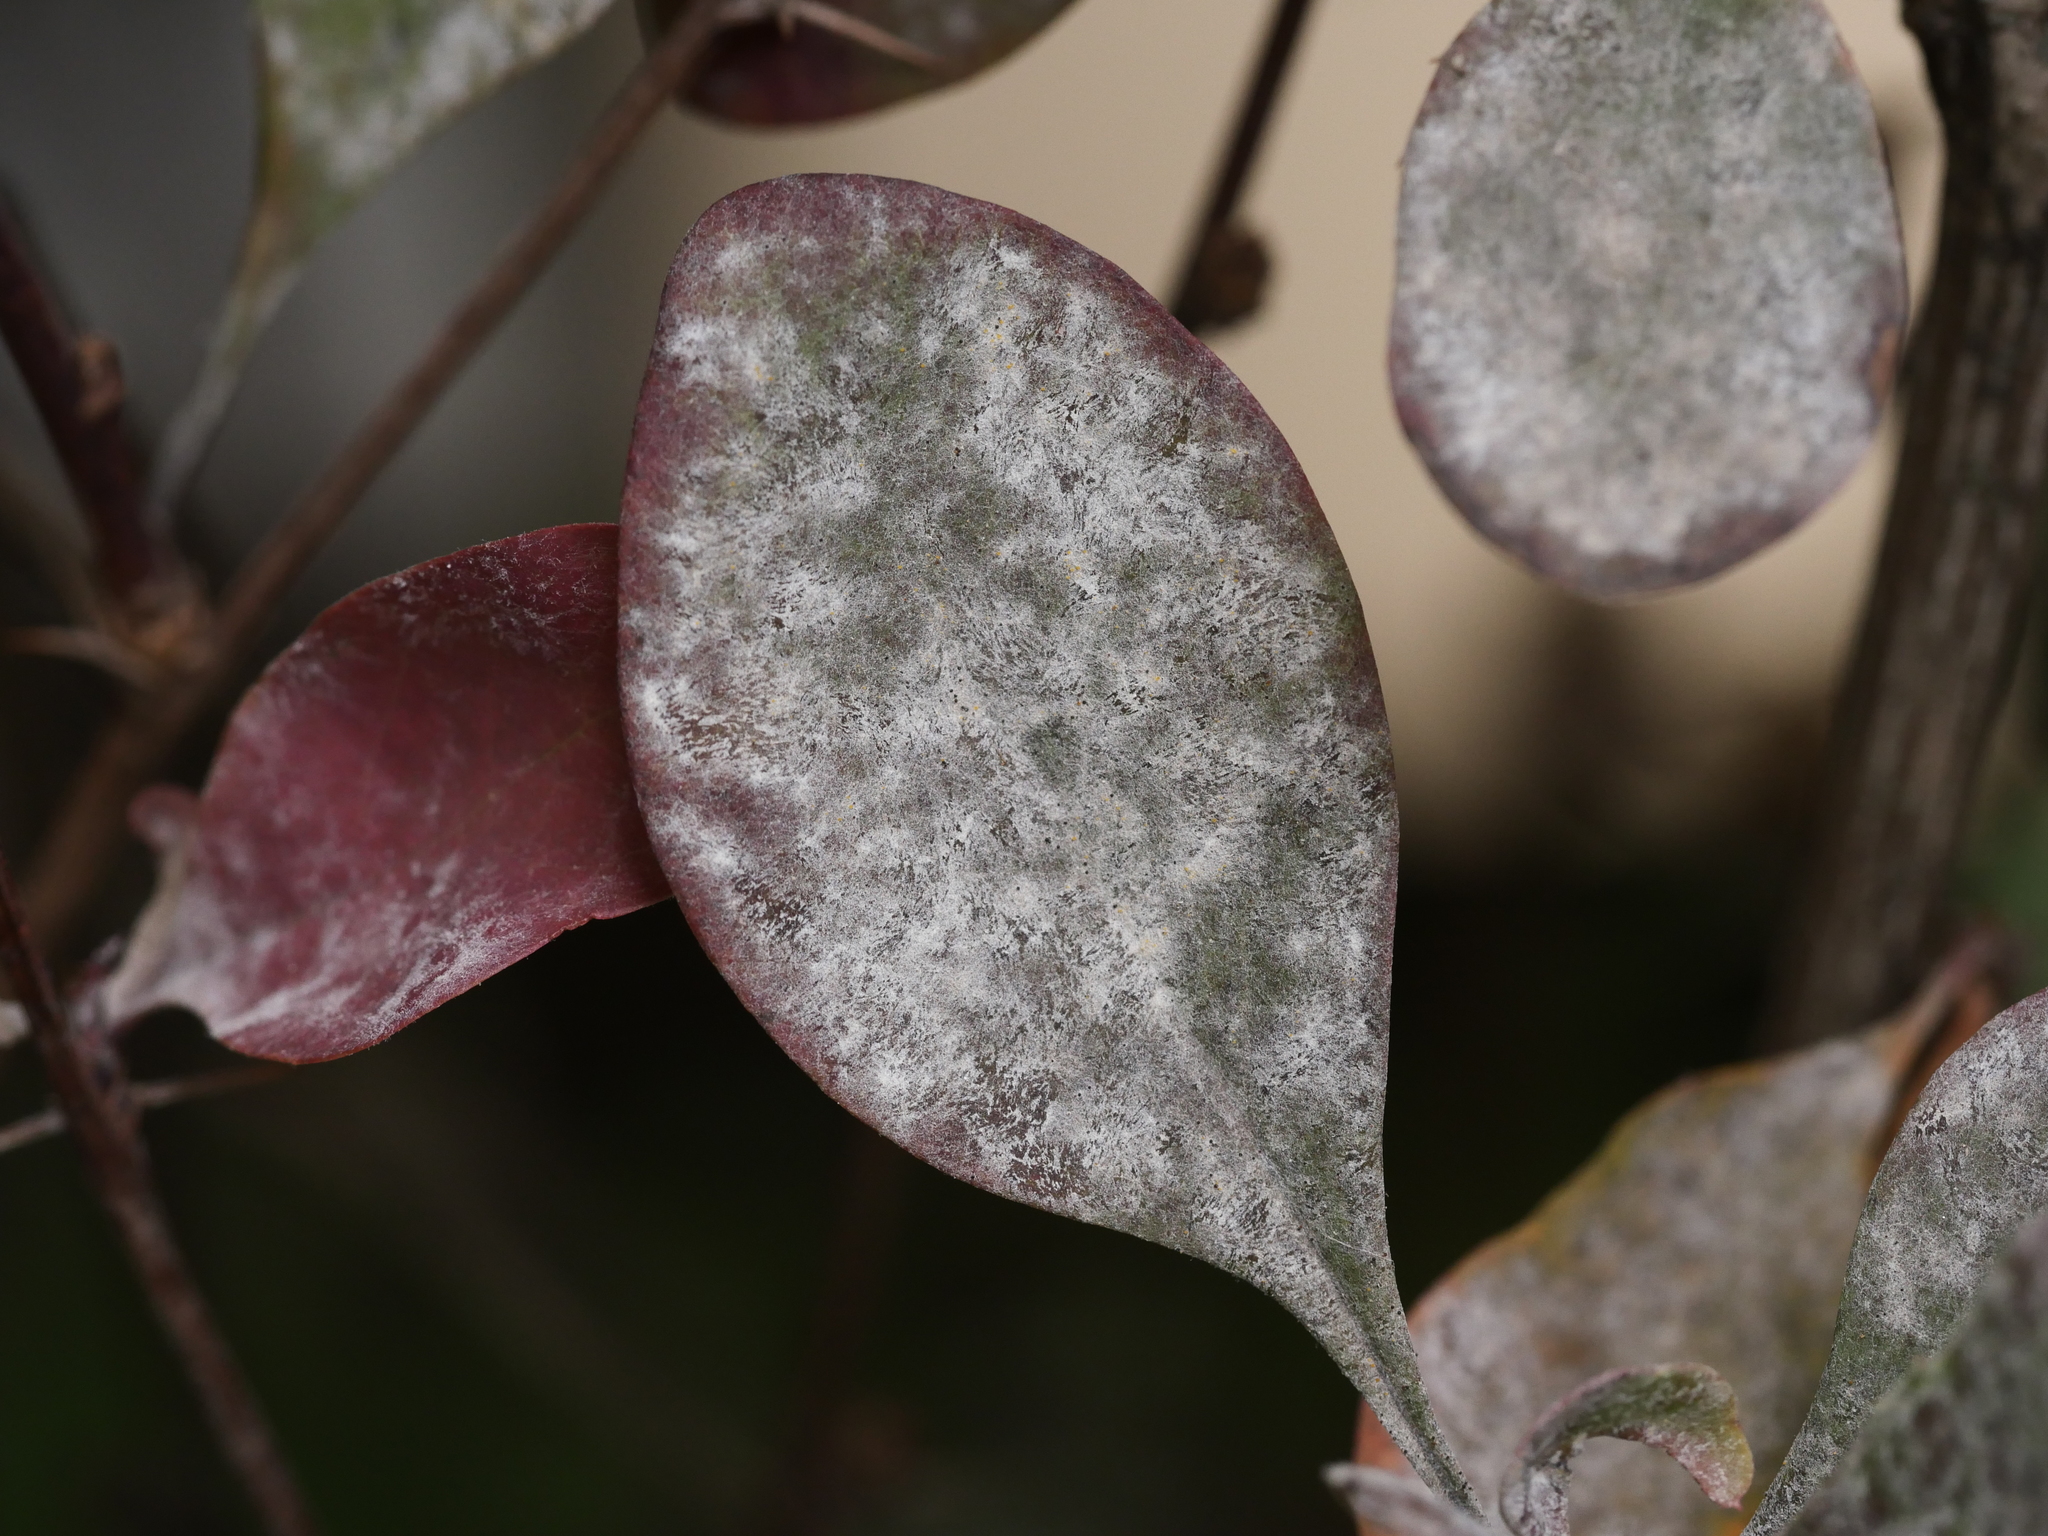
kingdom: Fungi
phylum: Ascomycota
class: Leotiomycetes
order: Helotiales
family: Erysiphaceae
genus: Erysiphe
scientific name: Erysiphe berberidis
